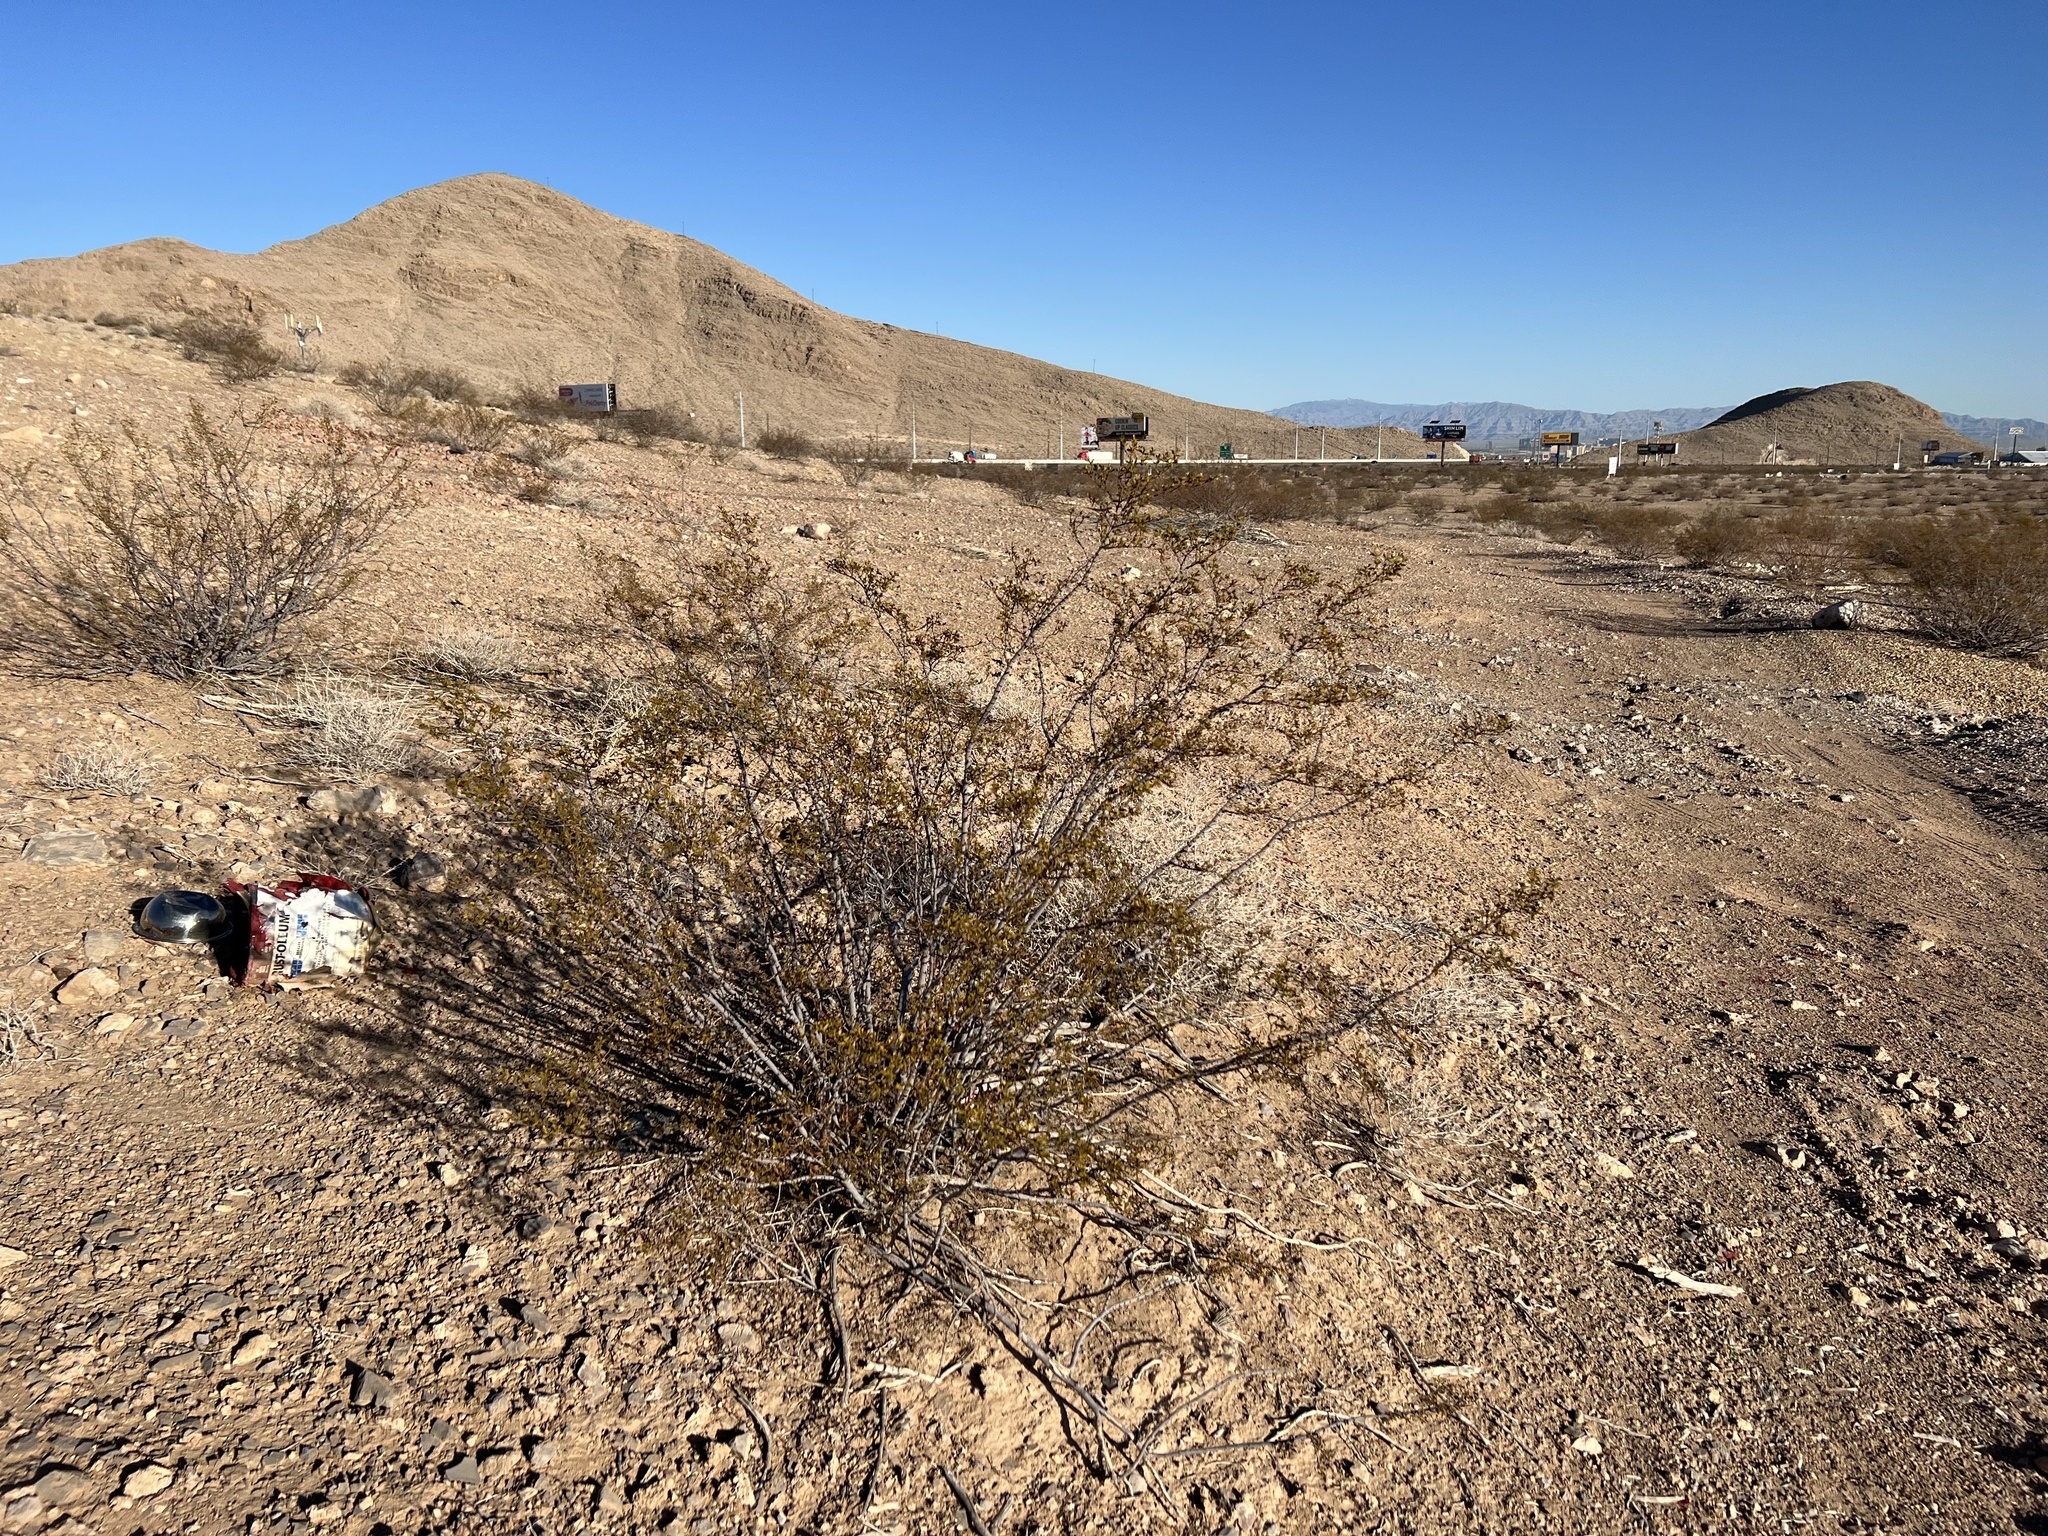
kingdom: Plantae
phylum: Tracheophyta
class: Magnoliopsida
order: Zygophyllales
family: Zygophyllaceae
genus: Larrea
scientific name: Larrea tridentata
